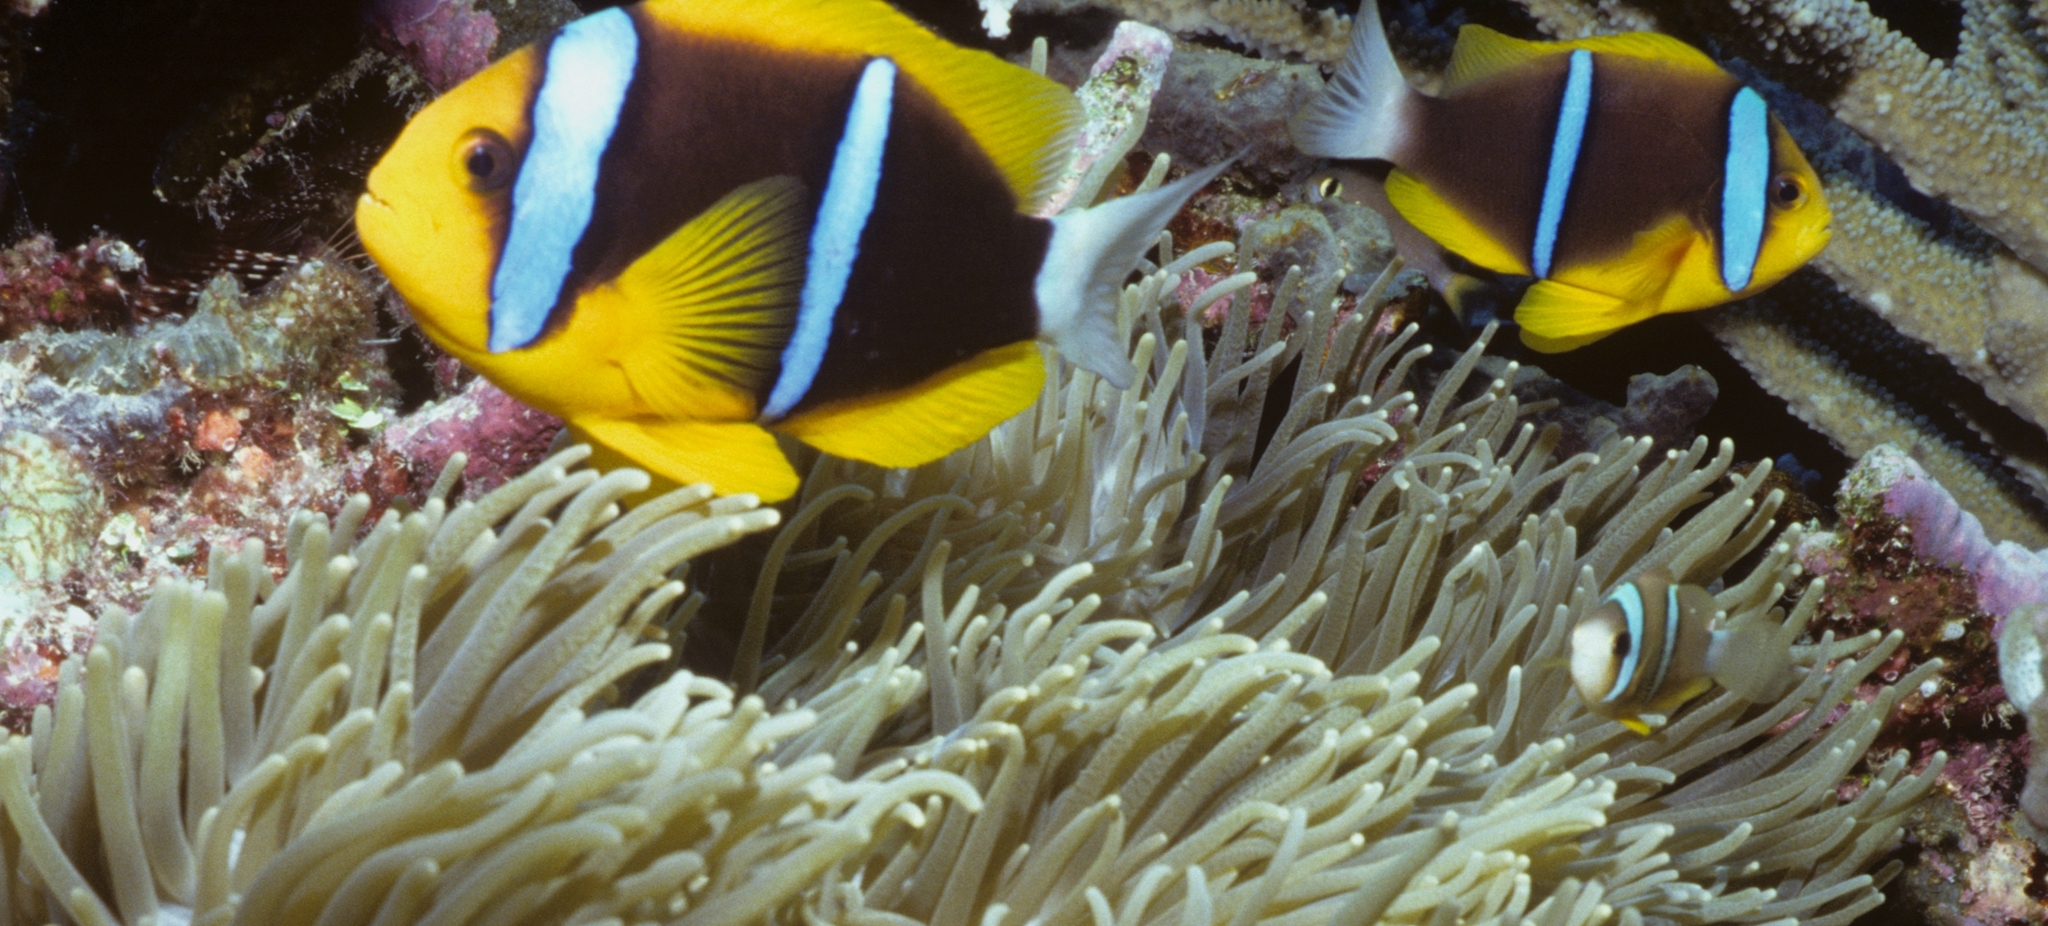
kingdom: Animalia
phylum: Chordata
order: Perciformes
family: Pomacentridae
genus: Amphiprion
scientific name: Amphiprion chrysopterus
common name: Orange-fin anemonefish
